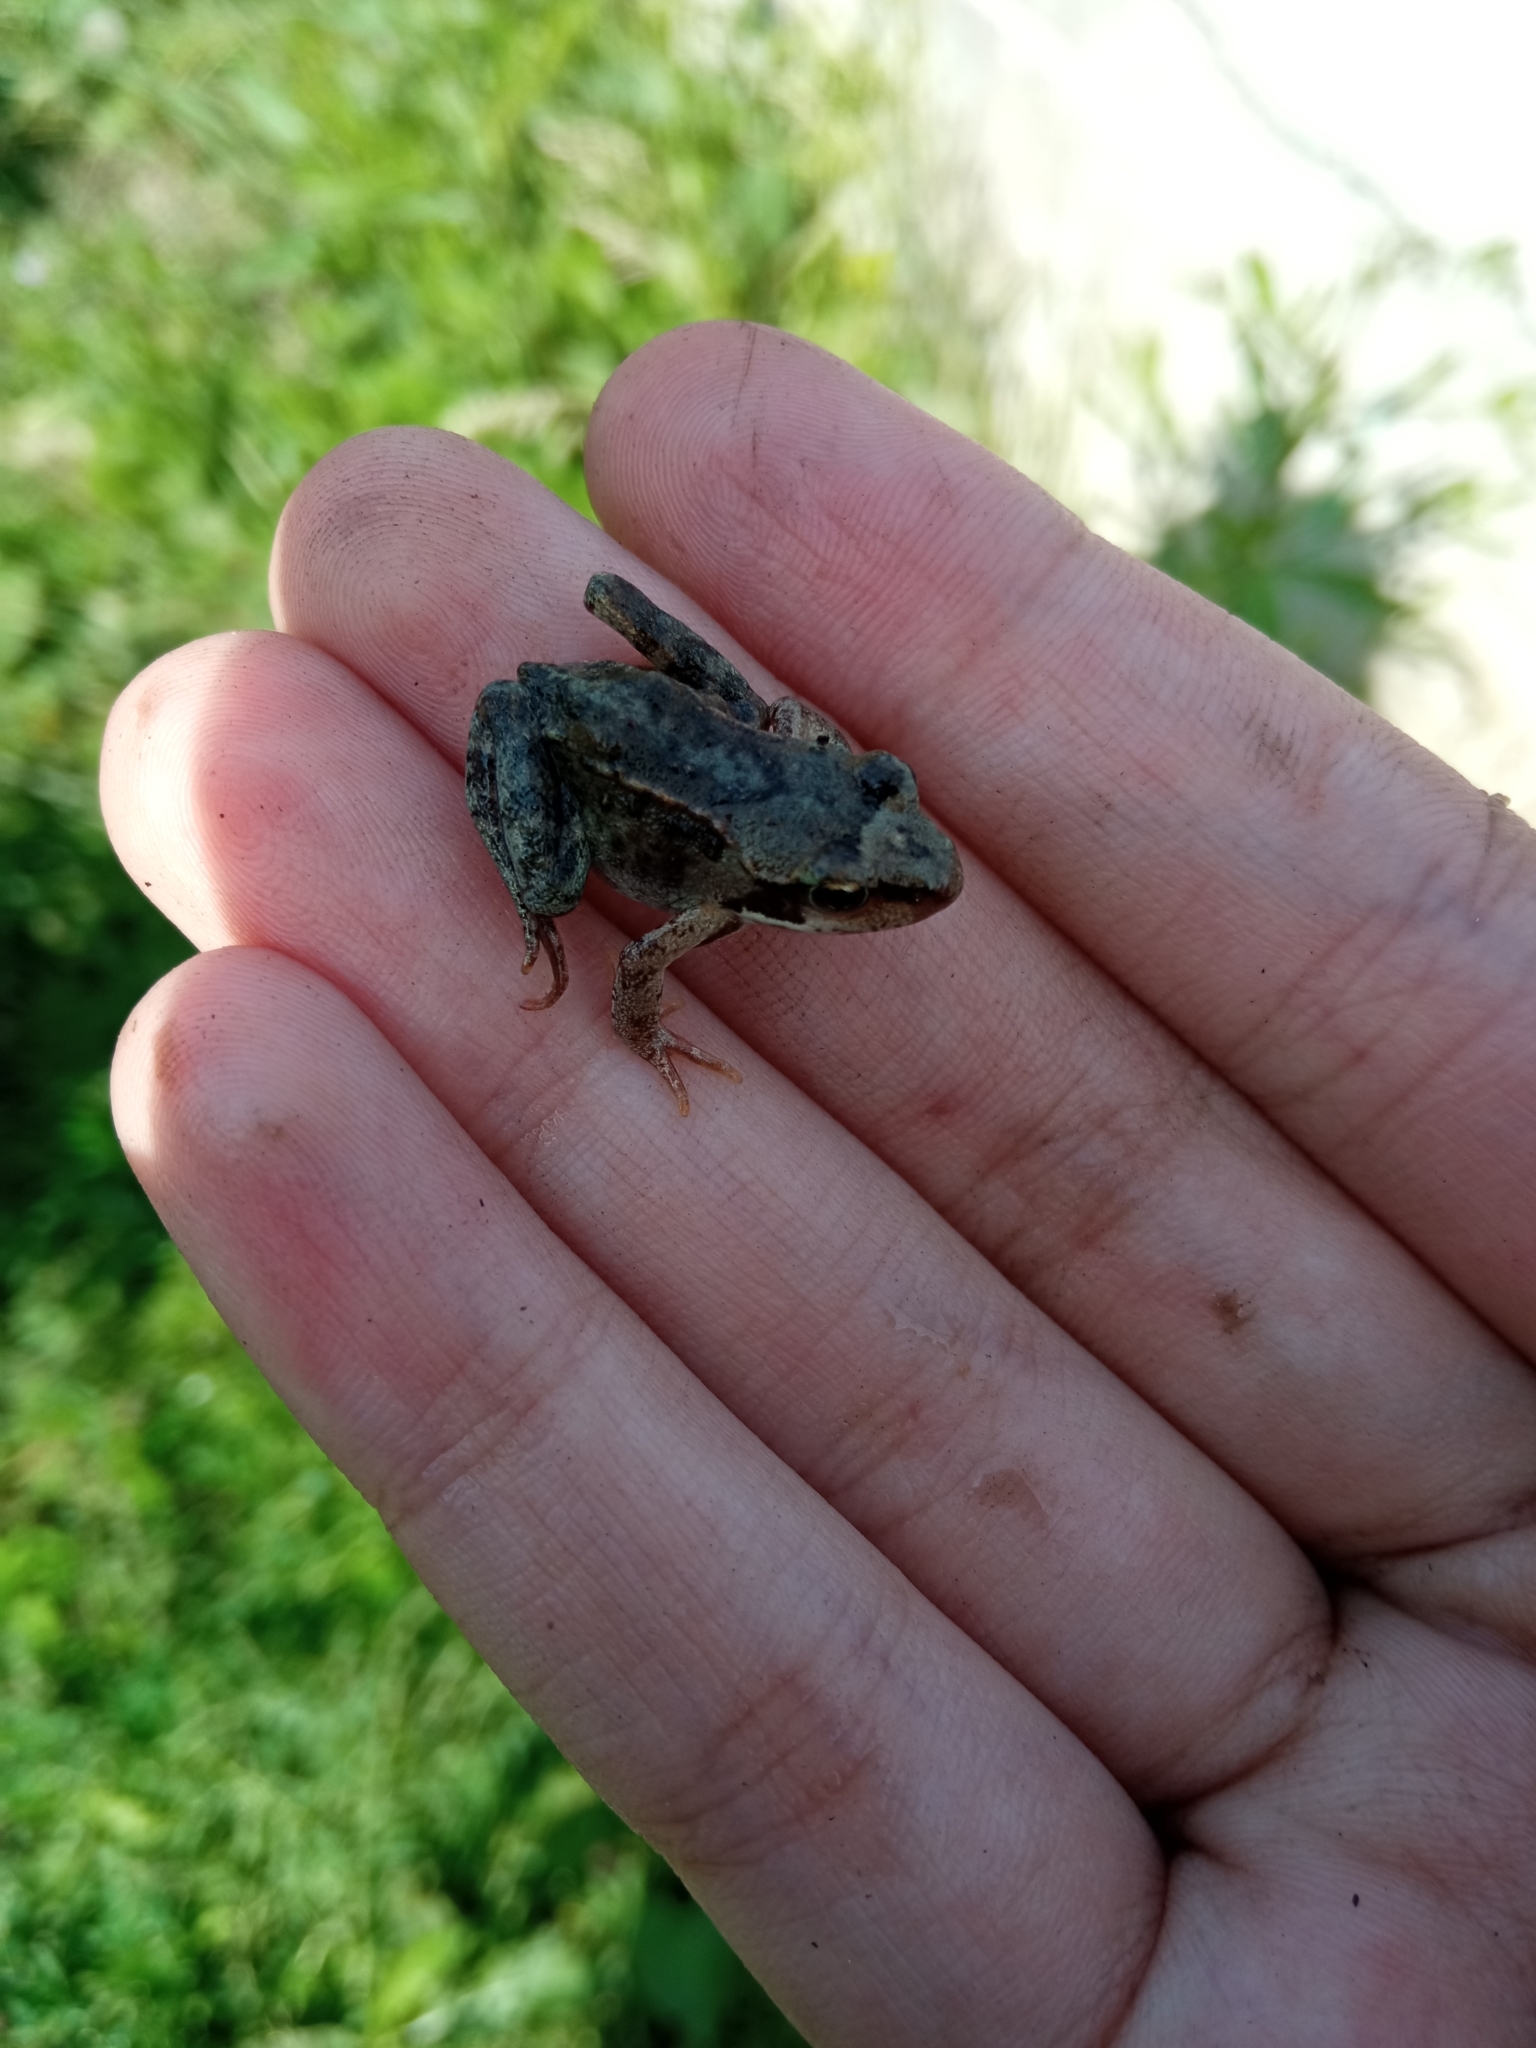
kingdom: Animalia
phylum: Chordata
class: Amphibia
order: Anura
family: Ranidae
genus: Rana
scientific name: Rana temporaria
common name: Common frog
